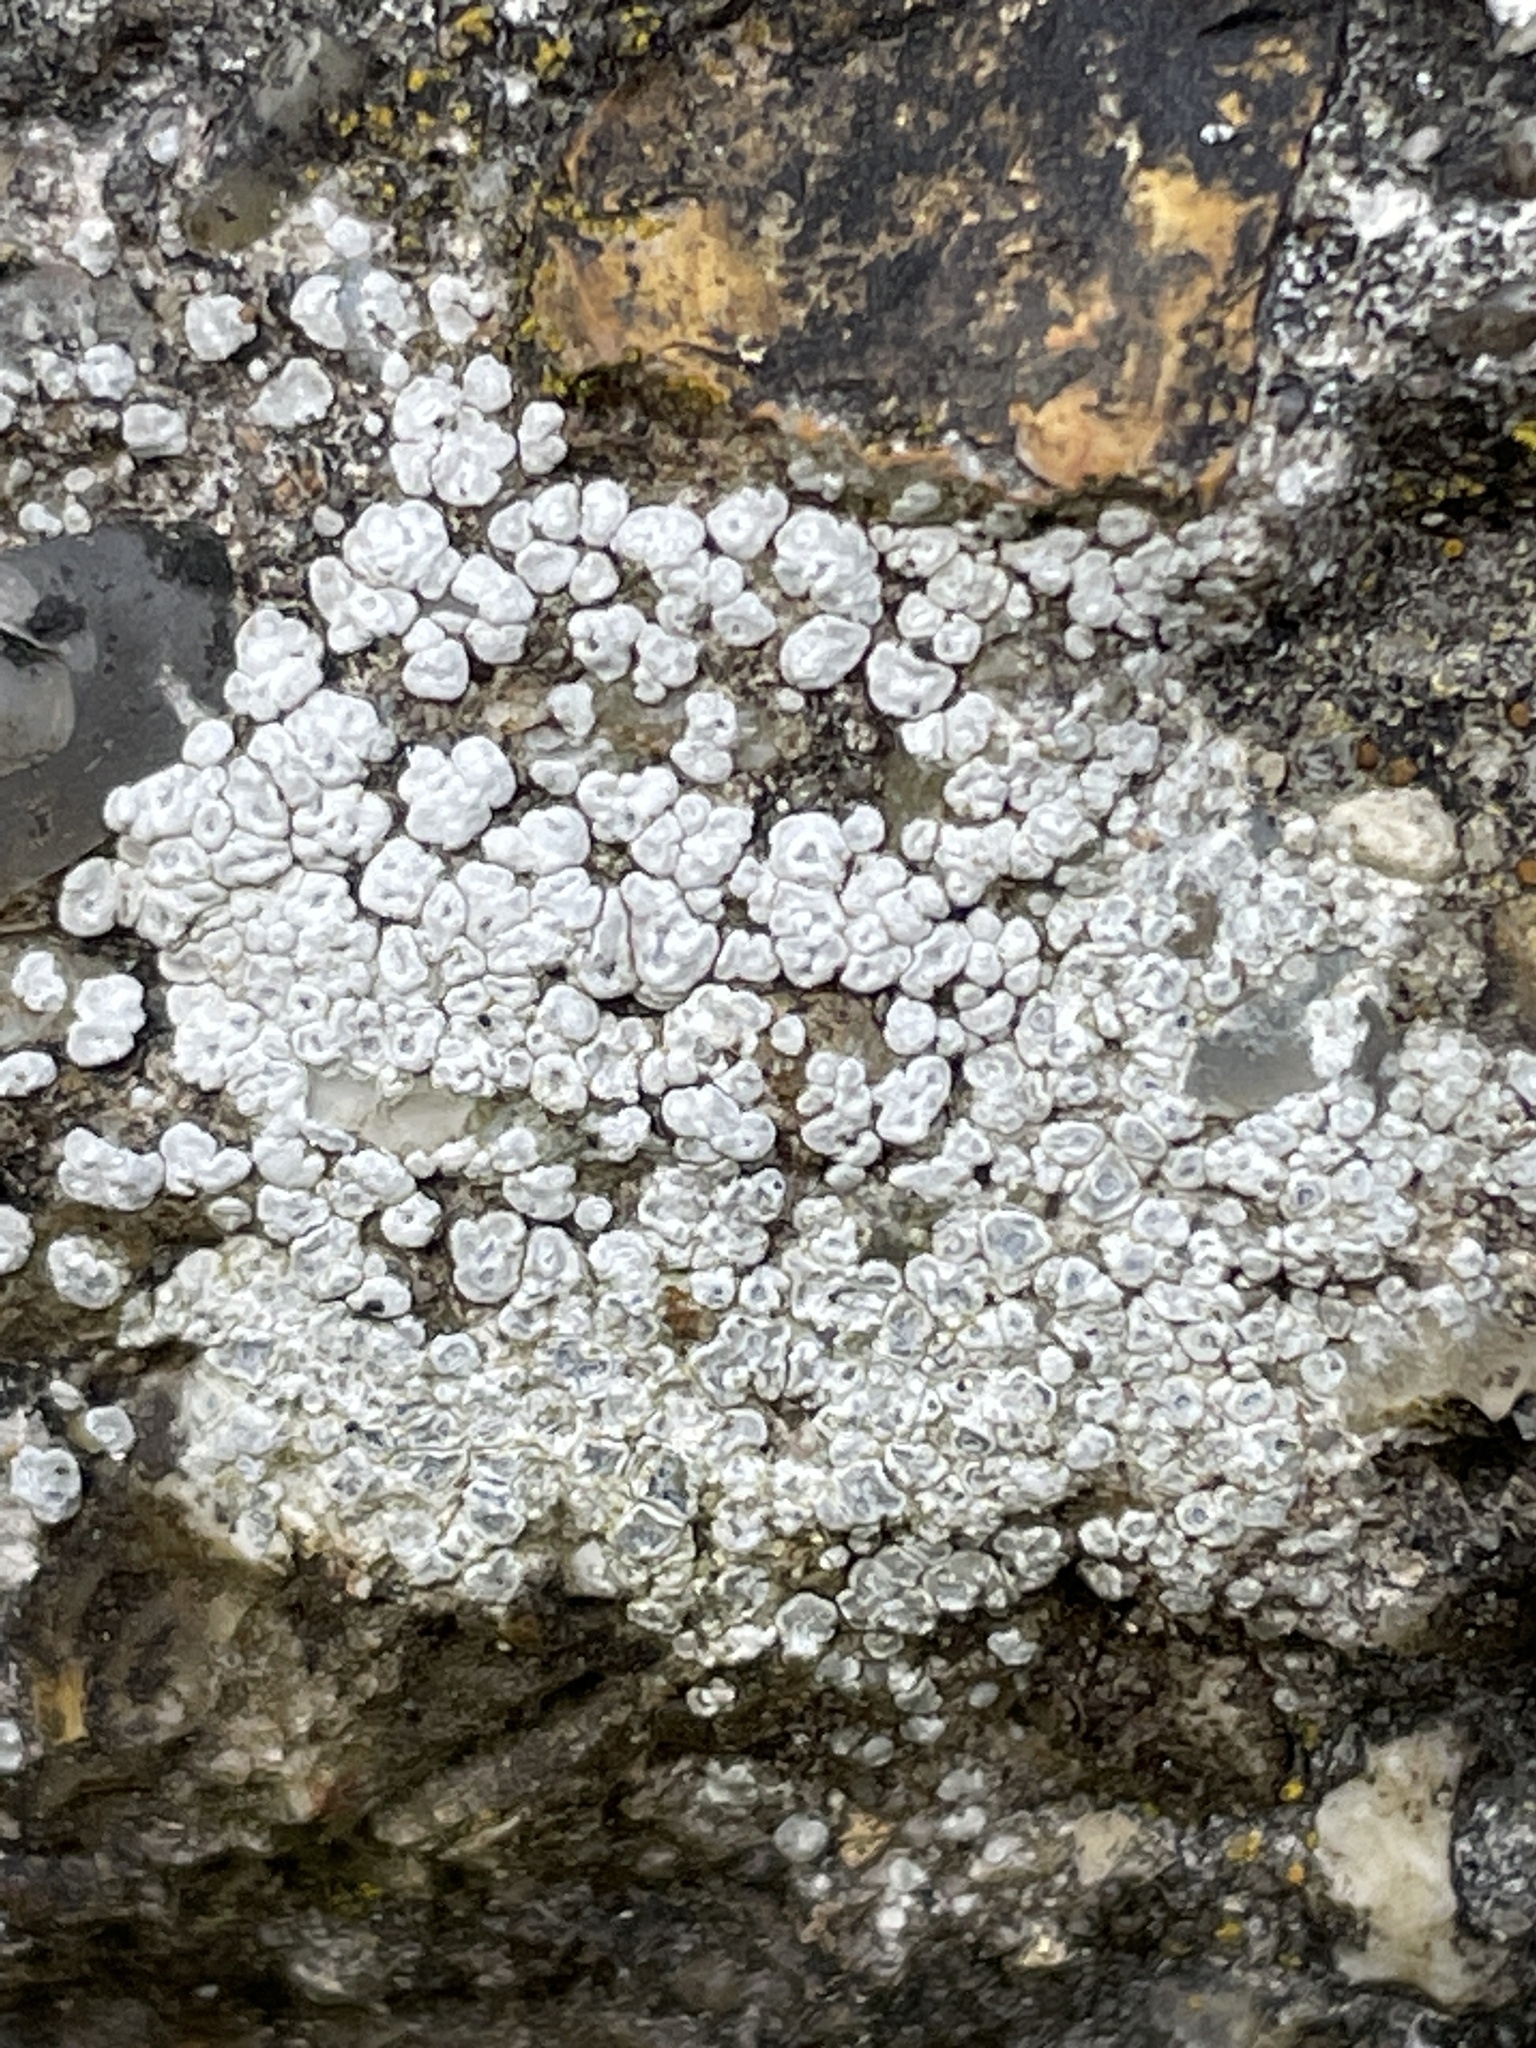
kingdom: Fungi
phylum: Ascomycota
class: Lecanoromycetes
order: Pertusariales
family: Megasporaceae
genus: Circinaria
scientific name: Circinaria contorta
